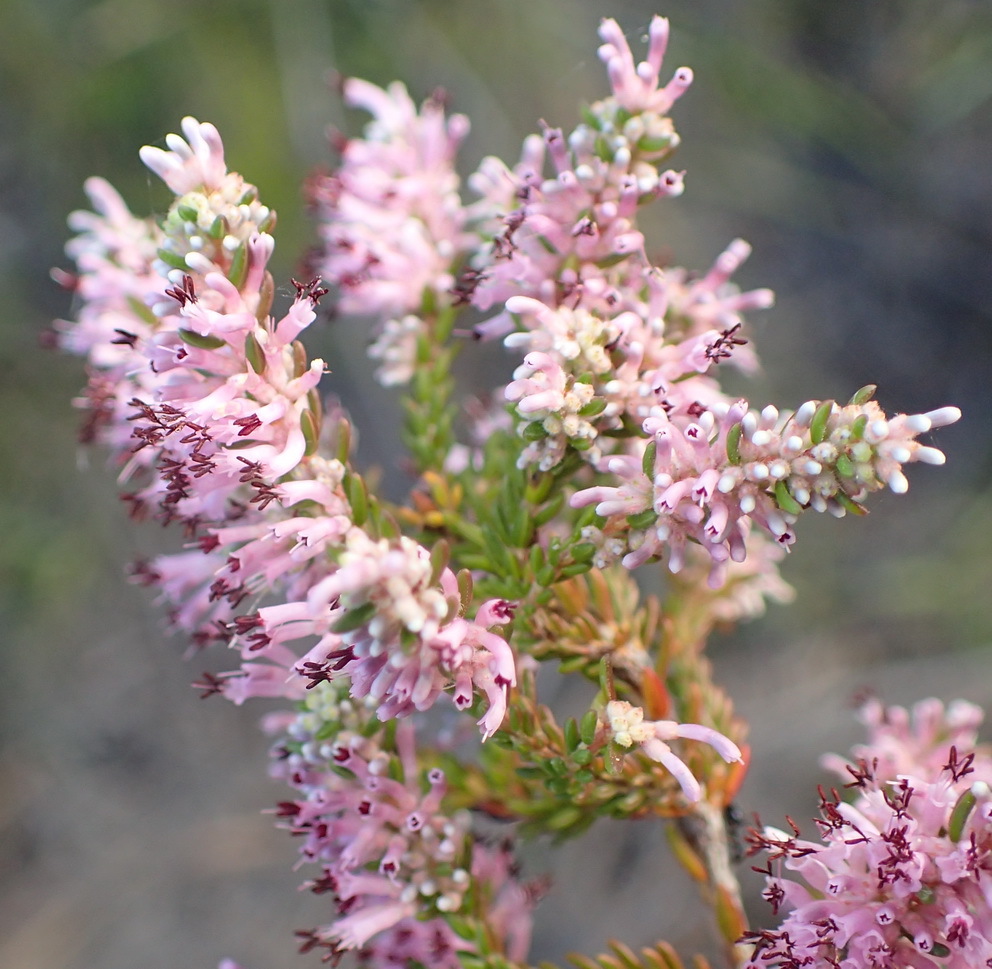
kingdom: Plantae
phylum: Tracheophyta
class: Magnoliopsida
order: Ericales
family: Ericaceae
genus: Erica
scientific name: Erica uberiflora
